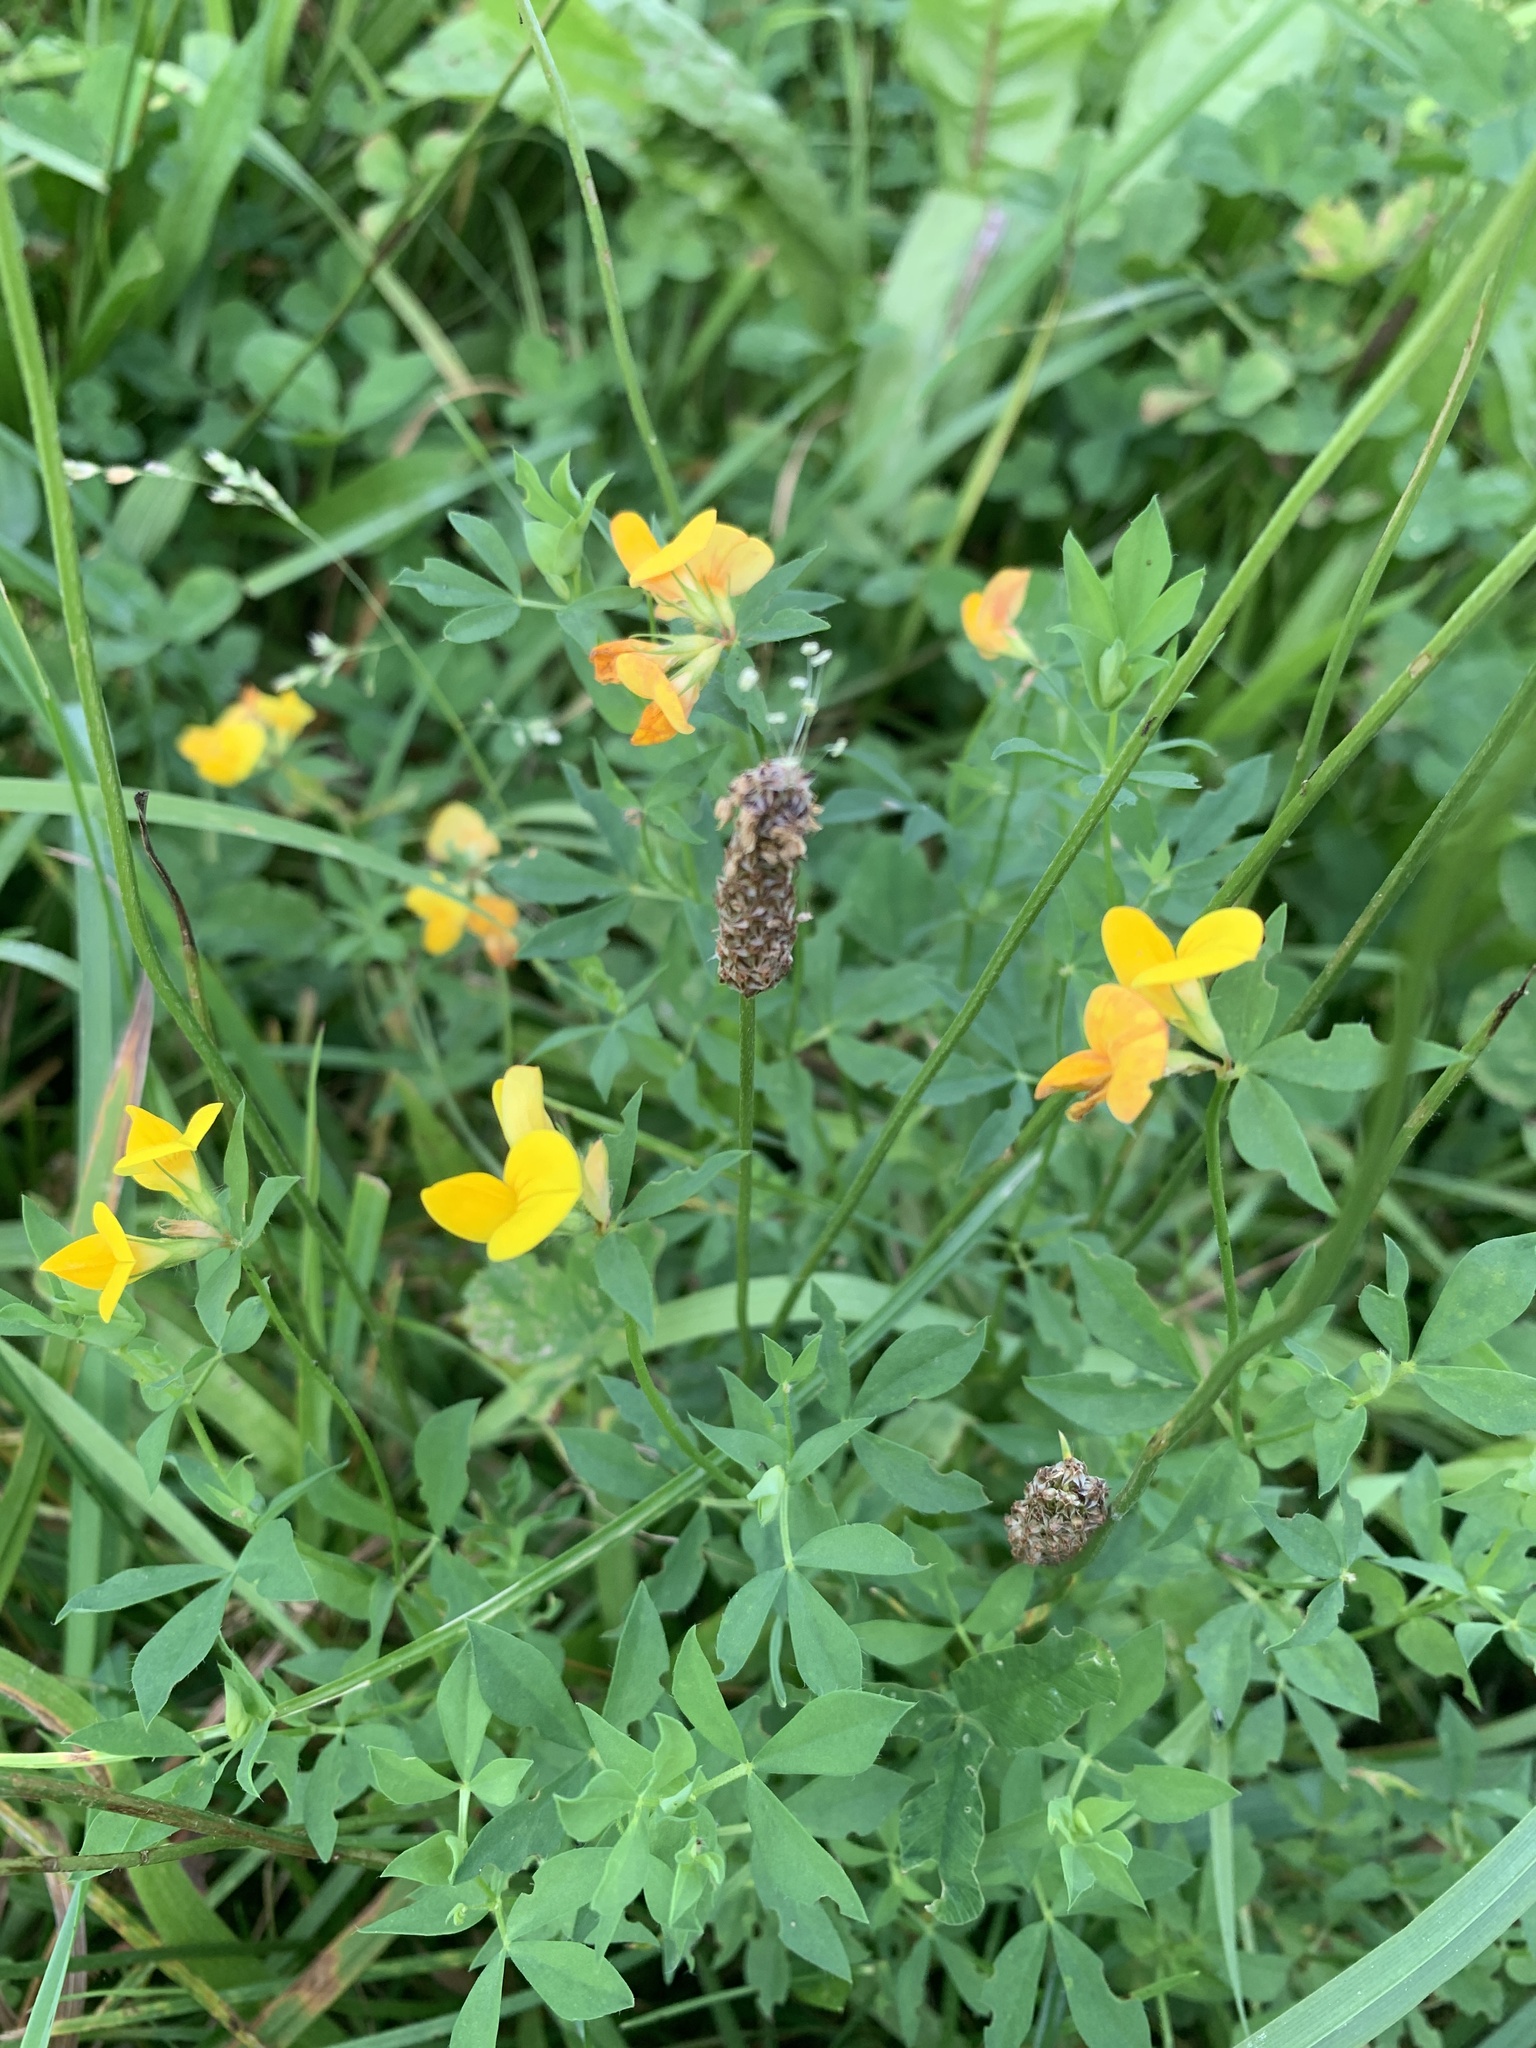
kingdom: Plantae
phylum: Tracheophyta
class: Magnoliopsida
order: Fabales
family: Fabaceae
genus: Lotus
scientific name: Lotus corniculatus
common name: Common bird's-foot-trefoil
